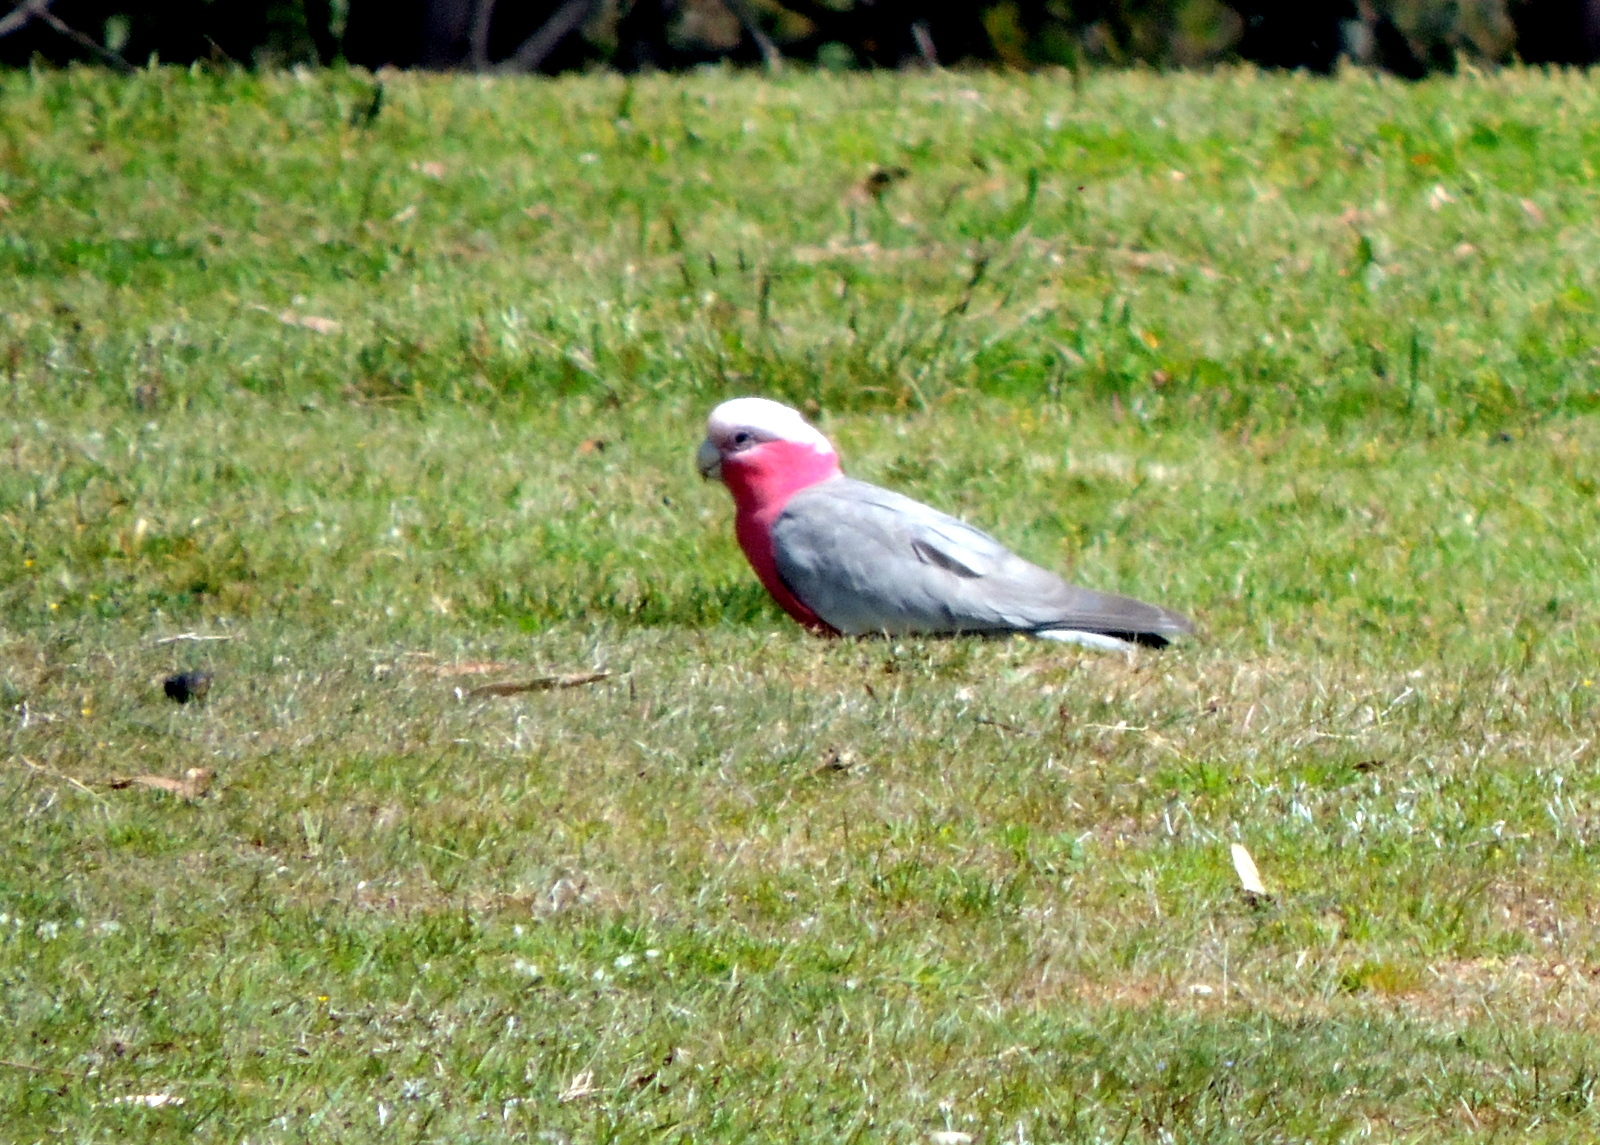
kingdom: Animalia
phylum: Chordata
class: Aves
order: Psittaciformes
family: Psittacidae
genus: Eolophus
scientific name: Eolophus roseicapilla
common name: Galah
